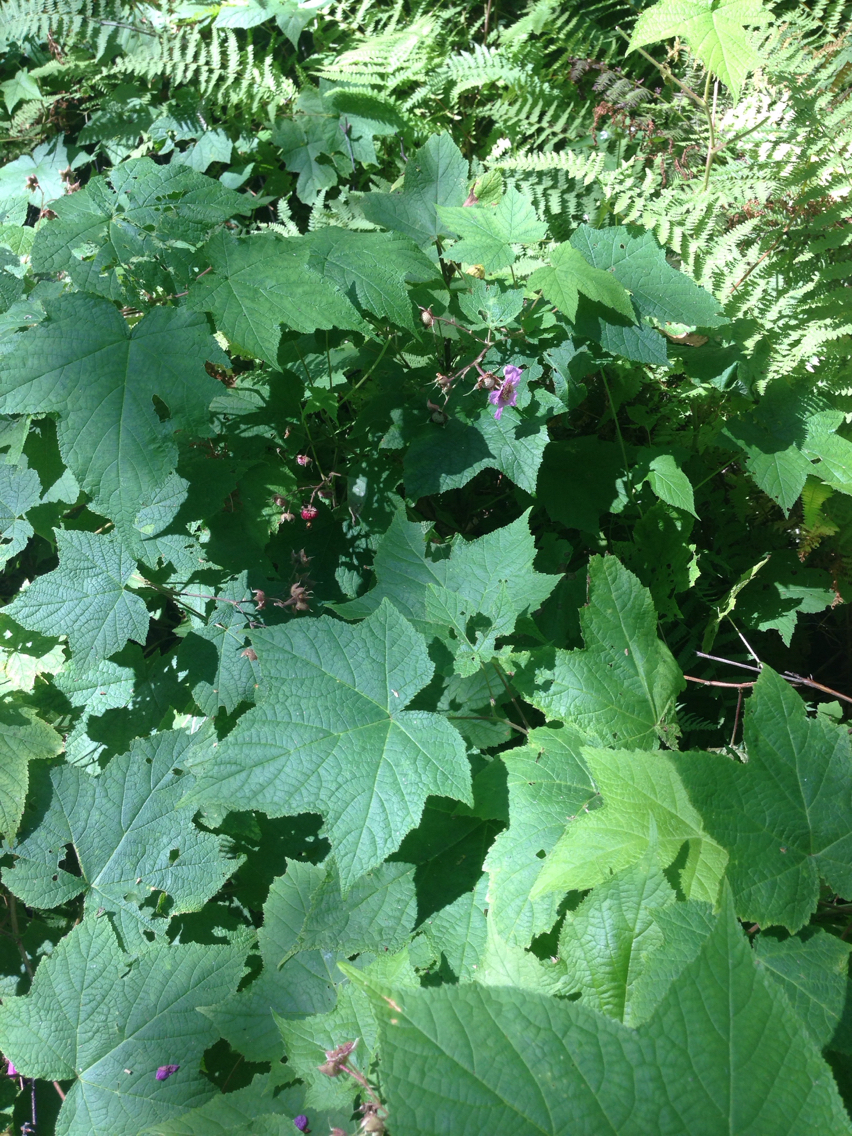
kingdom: Plantae
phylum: Tracheophyta
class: Magnoliopsida
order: Rosales
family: Rosaceae
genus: Rubus
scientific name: Rubus odoratus
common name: Purple-flowered raspberry
